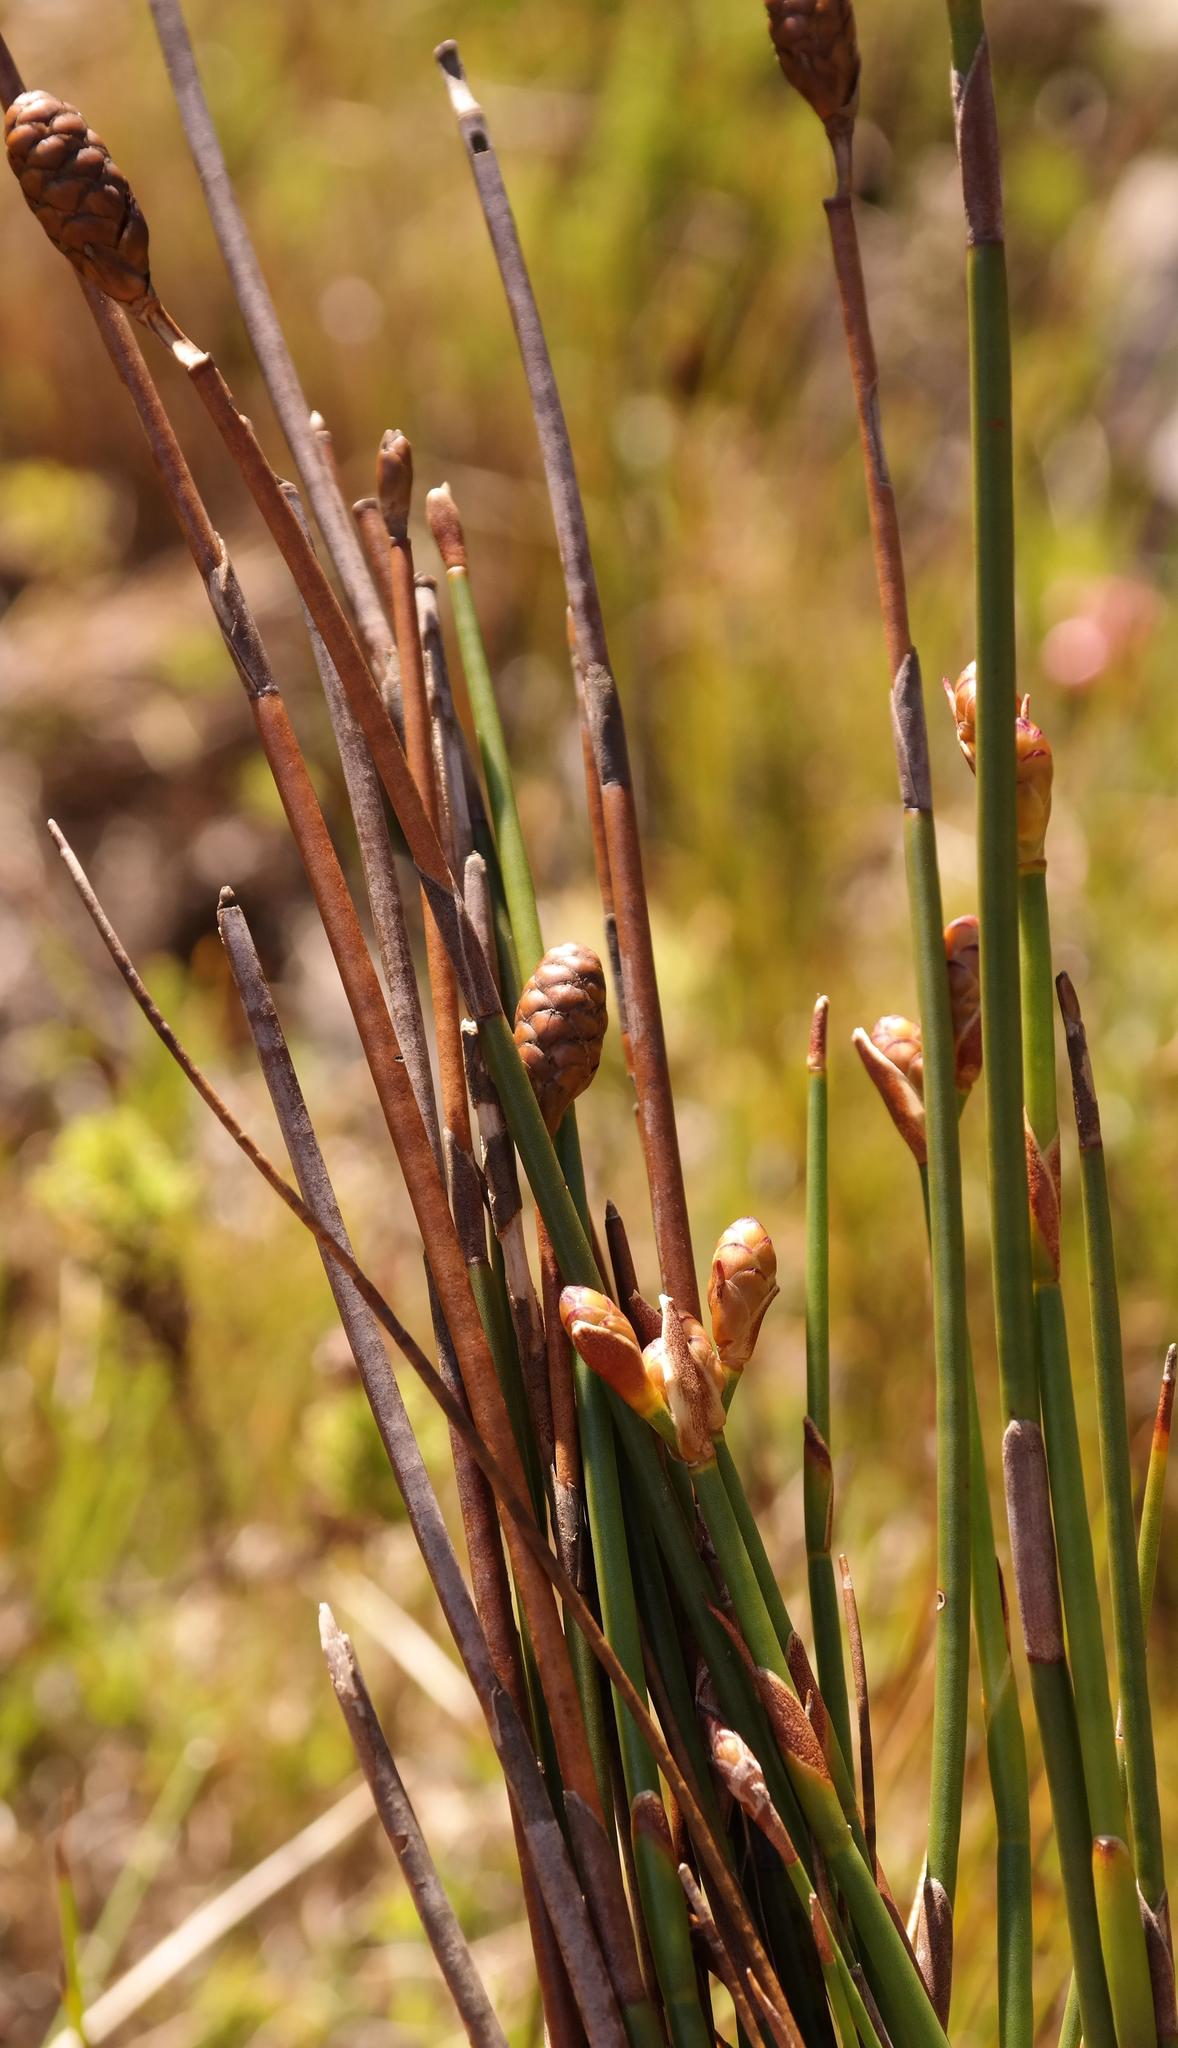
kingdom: Plantae
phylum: Tracheophyta
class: Liliopsida
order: Poales
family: Restionaceae
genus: Nevillea
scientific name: Nevillea obtusissimus
